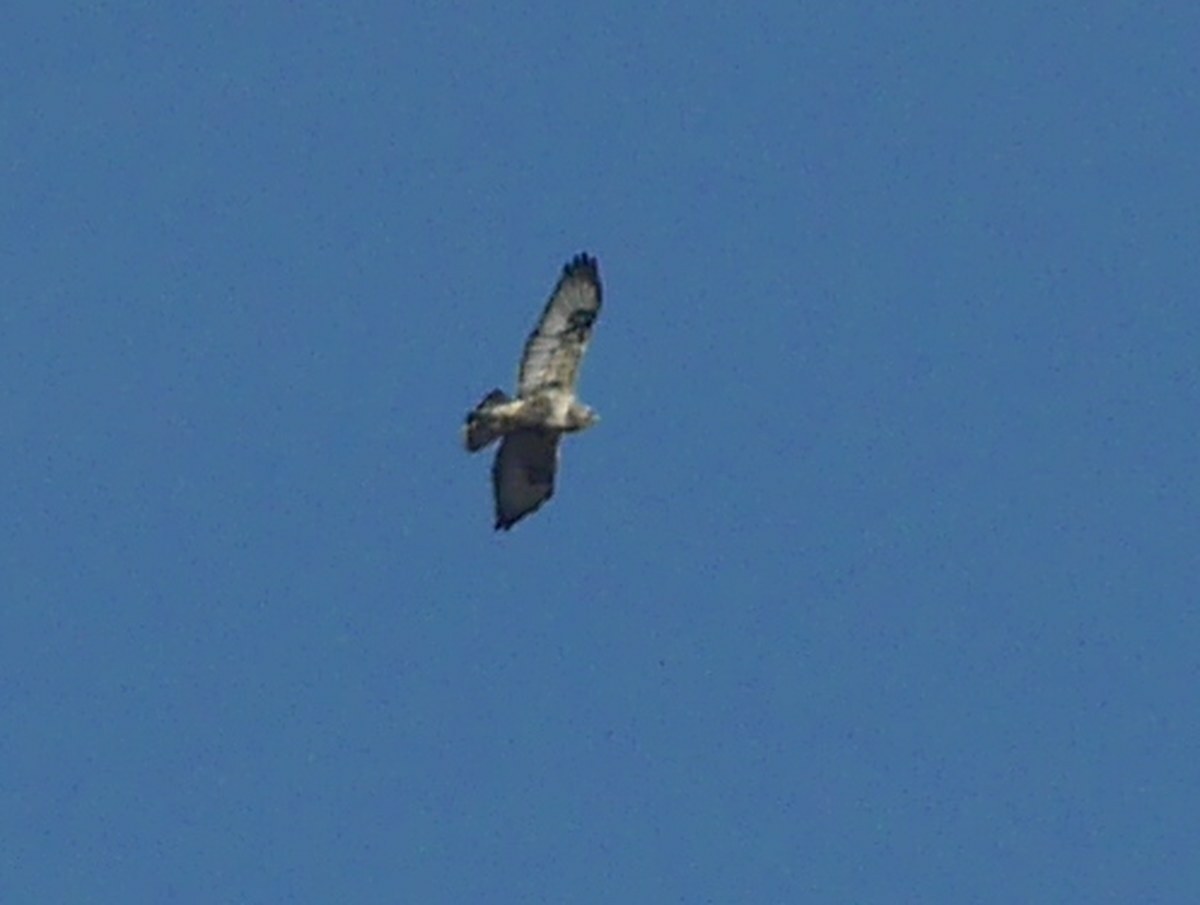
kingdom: Animalia
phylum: Chordata
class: Aves
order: Accipitriformes
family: Accipitridae
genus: Buteo
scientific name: Buteo lagopus
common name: Rough-legged buzzard
